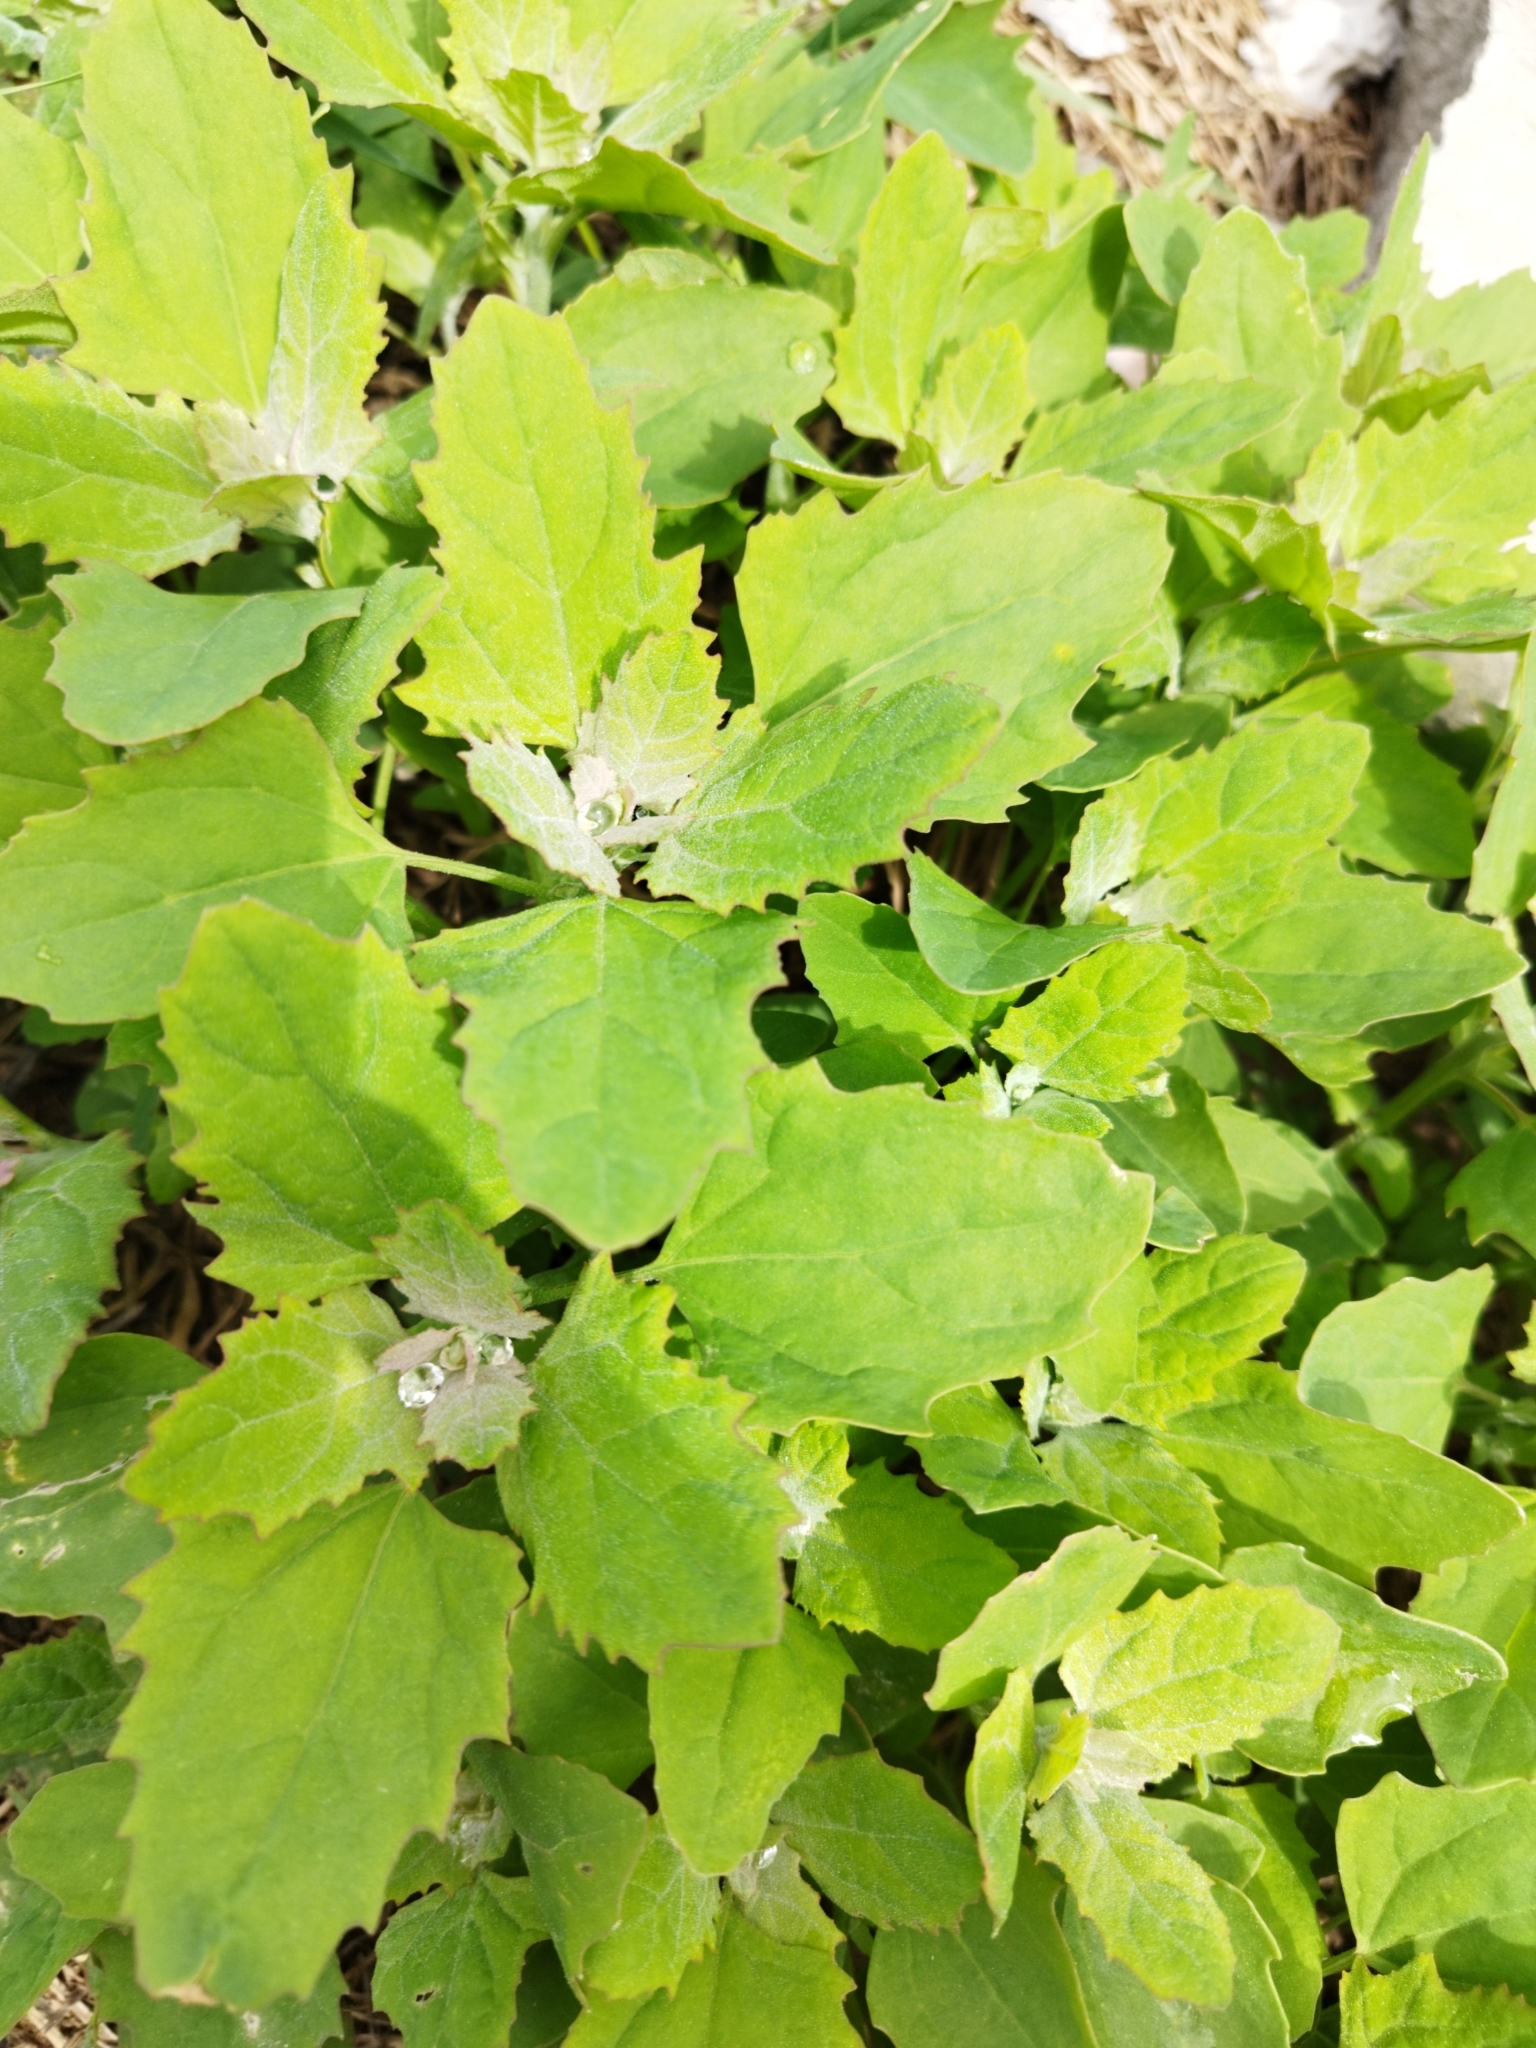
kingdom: Plantae
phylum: Tracheophyta
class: Magnoliopsida
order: Caryophyllales
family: Amaranthaceae
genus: Chenopodium
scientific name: Chenopodium album
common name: Fat-hen
